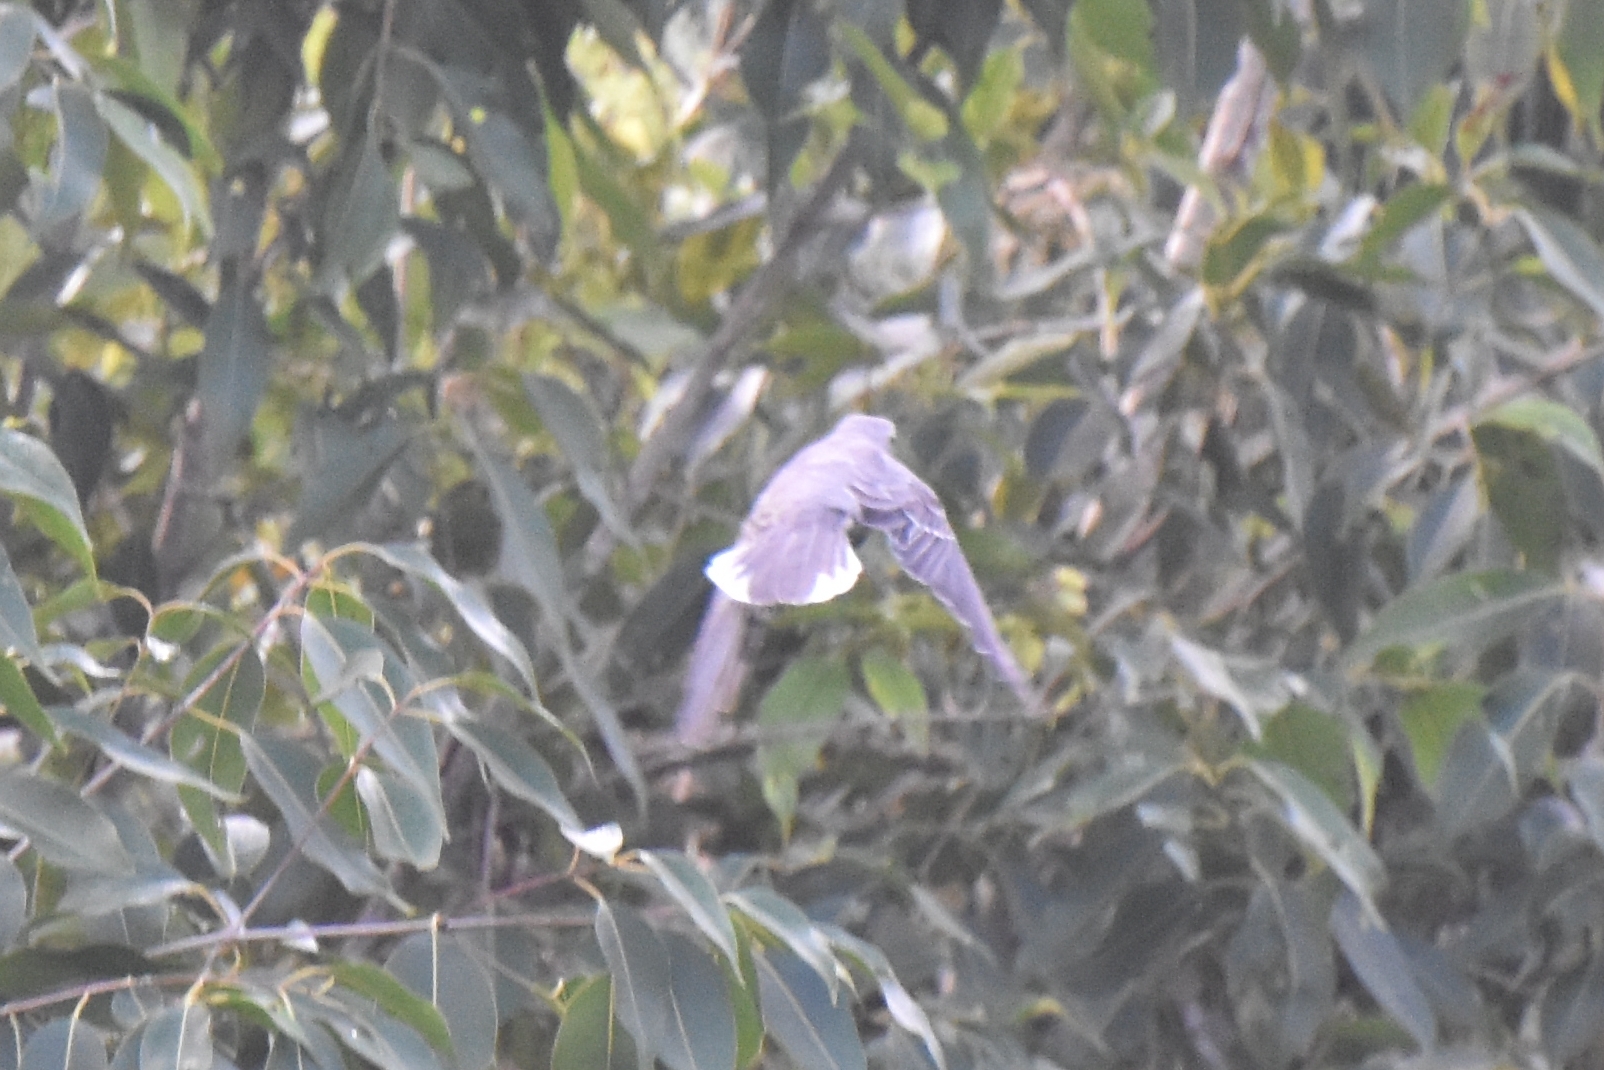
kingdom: Animalia
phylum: Chordata
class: Aves
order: Passeriformes
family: Mimidae
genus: Mimus
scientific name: Mimus gilvus
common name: Tropical mockingbird
